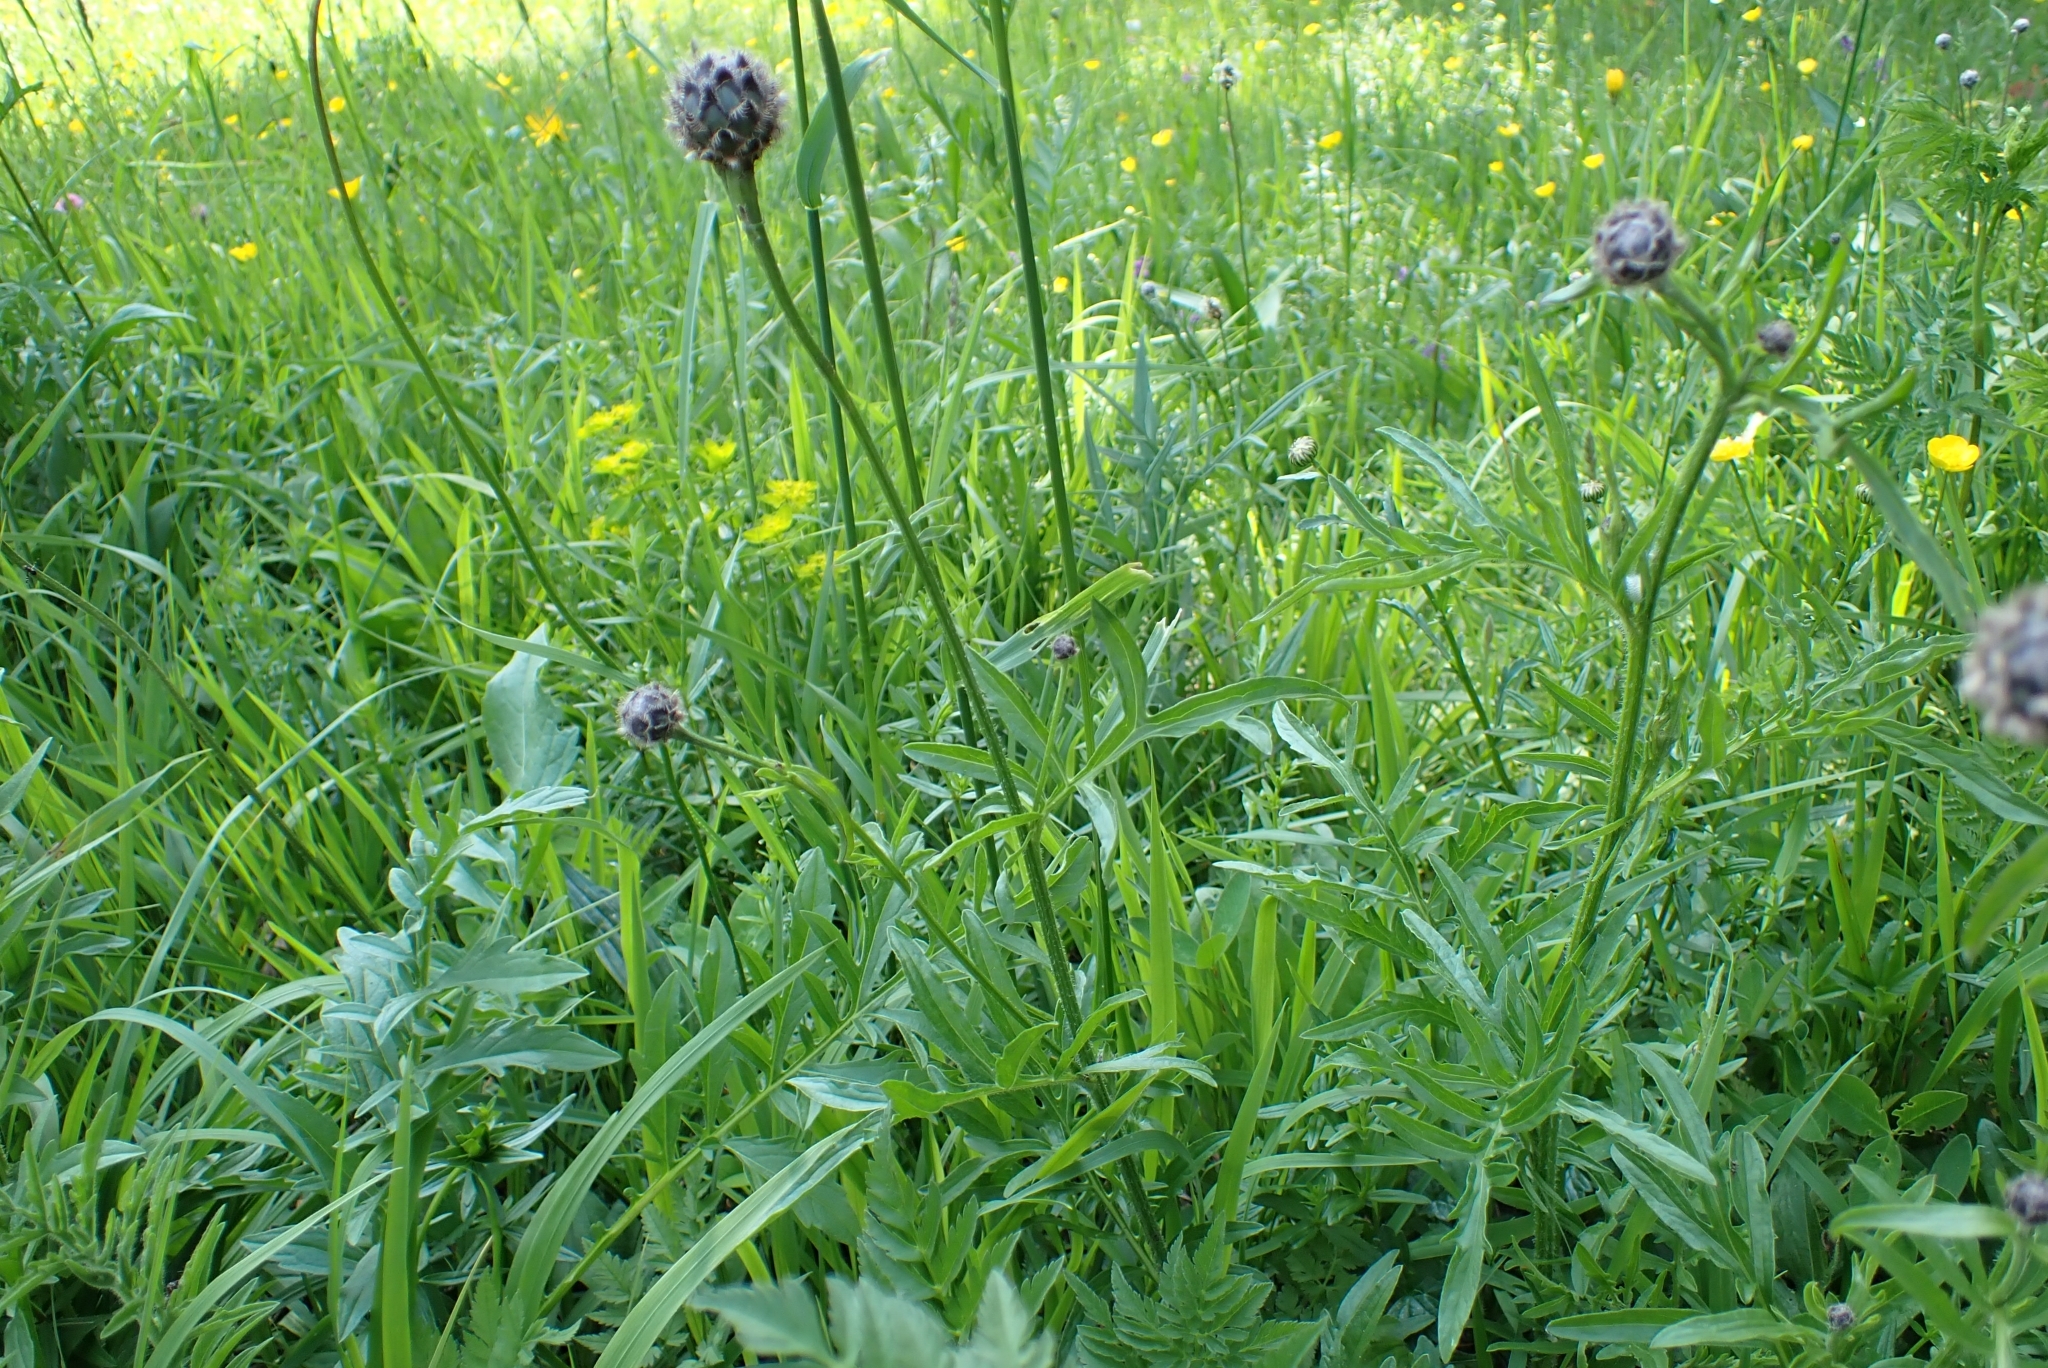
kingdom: Plantae
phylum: Tracheophyta
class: Magnoliopsida
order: Asterales
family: Asteraceae
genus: Centaurea
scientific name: Centaurea scabiosa
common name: Greater knapweed
